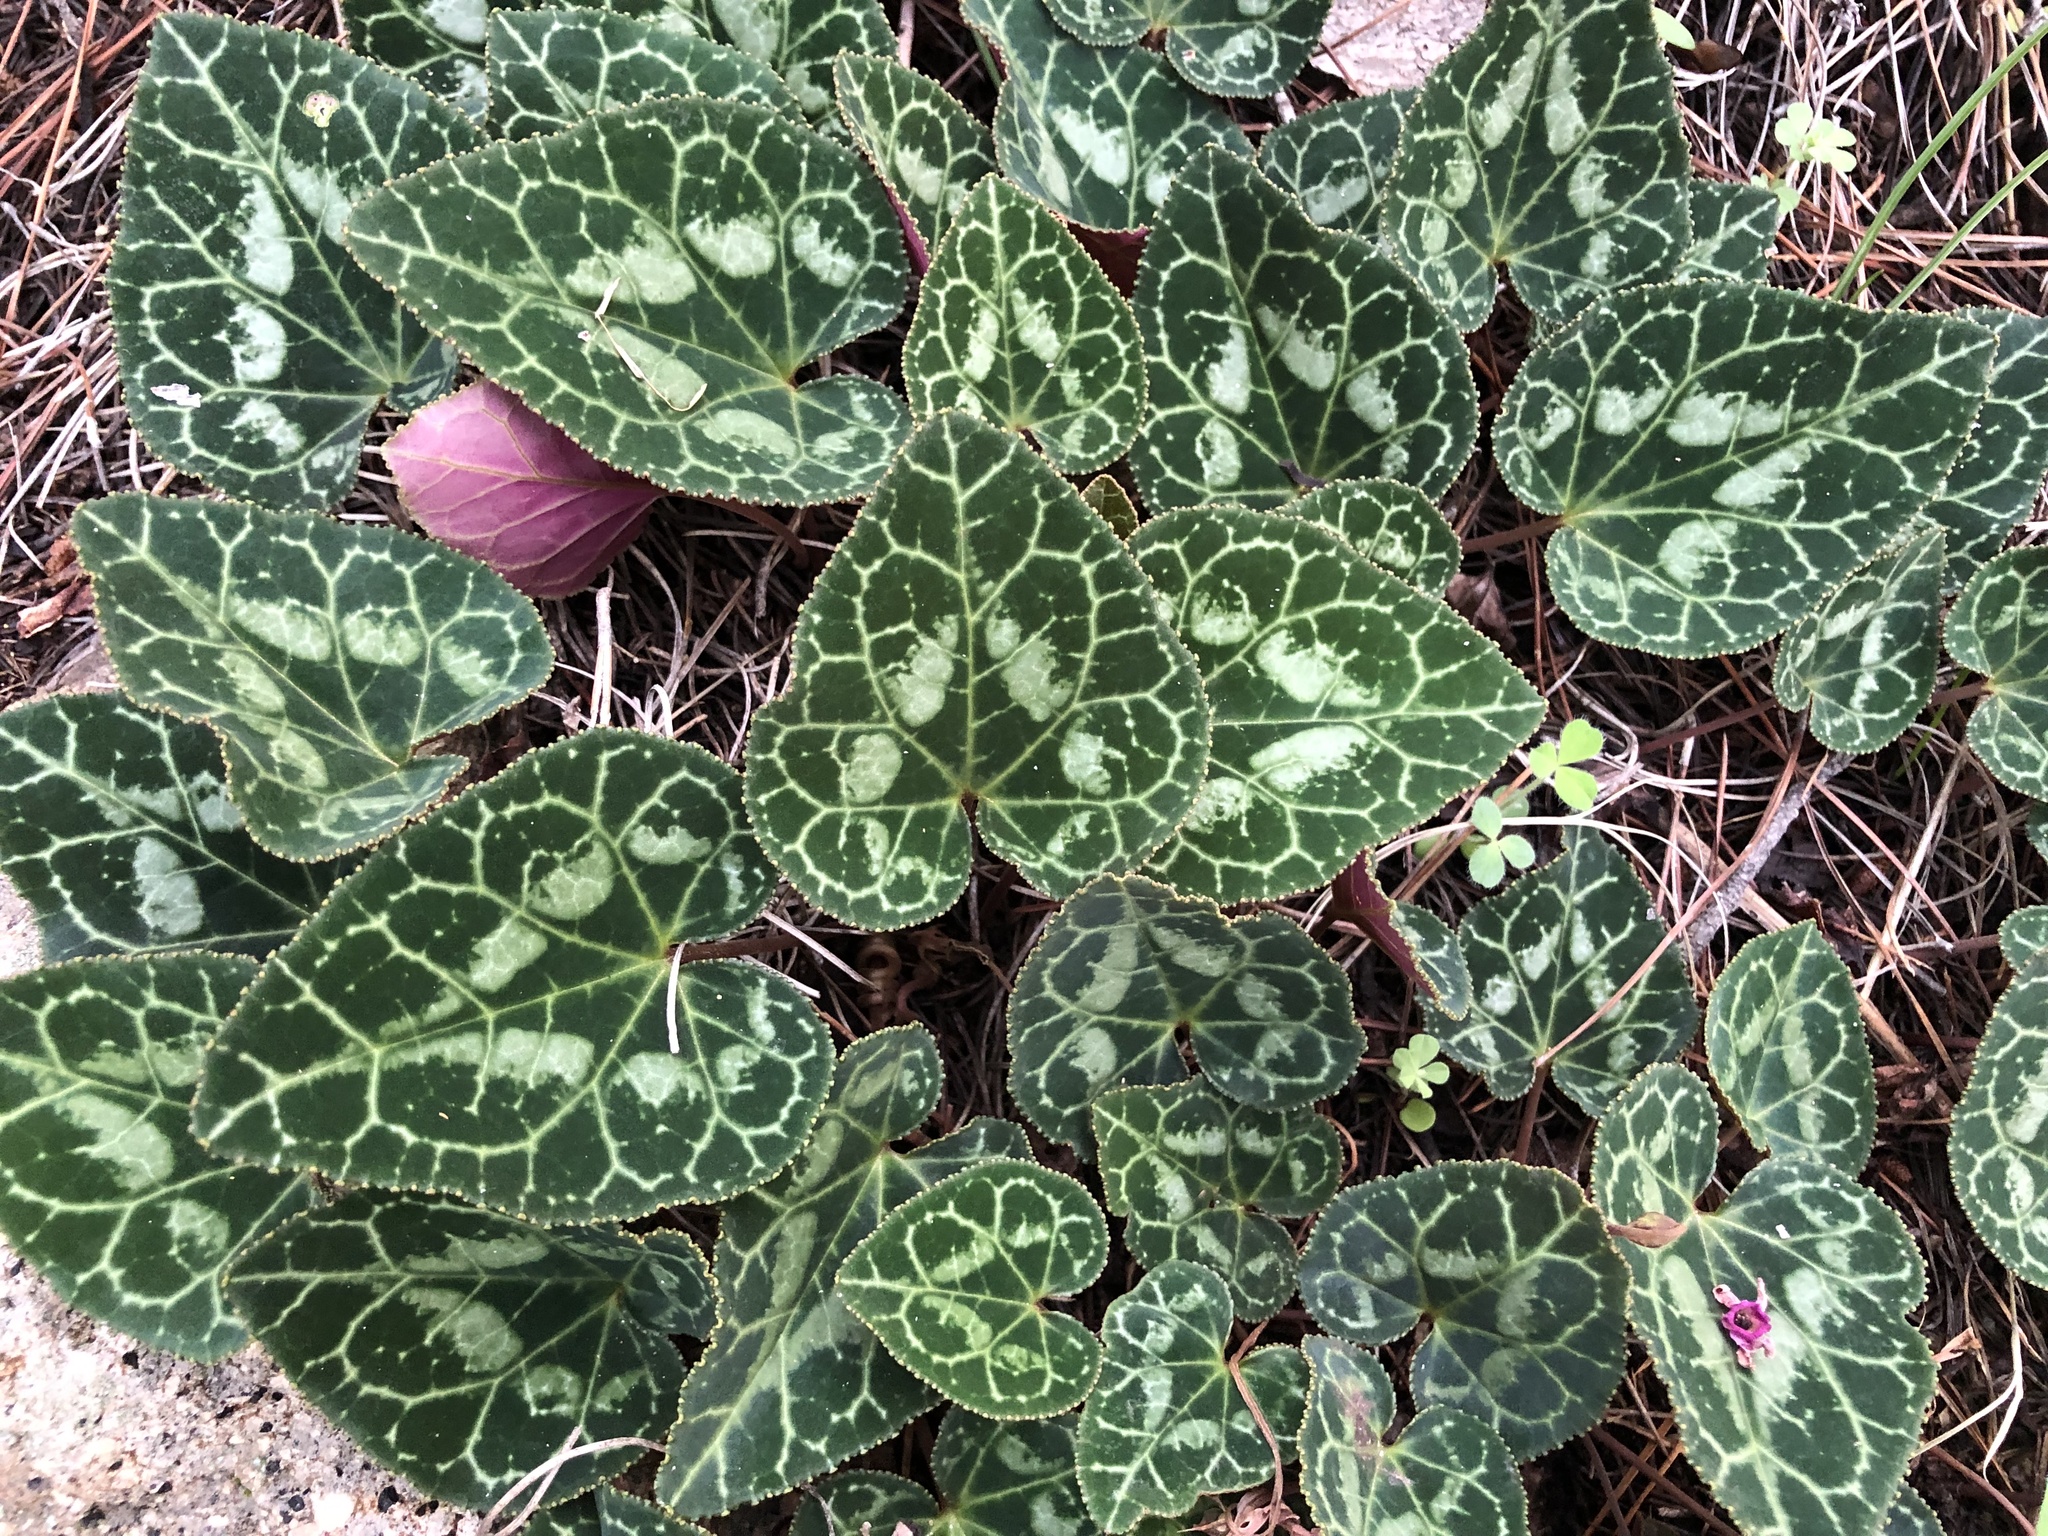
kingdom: Plantae
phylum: Tracheophyta
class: Magnoliopsida
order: Ericales
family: Primulaceae
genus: Cyclamen
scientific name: Cyclamen graecum
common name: Greek cyclamen
